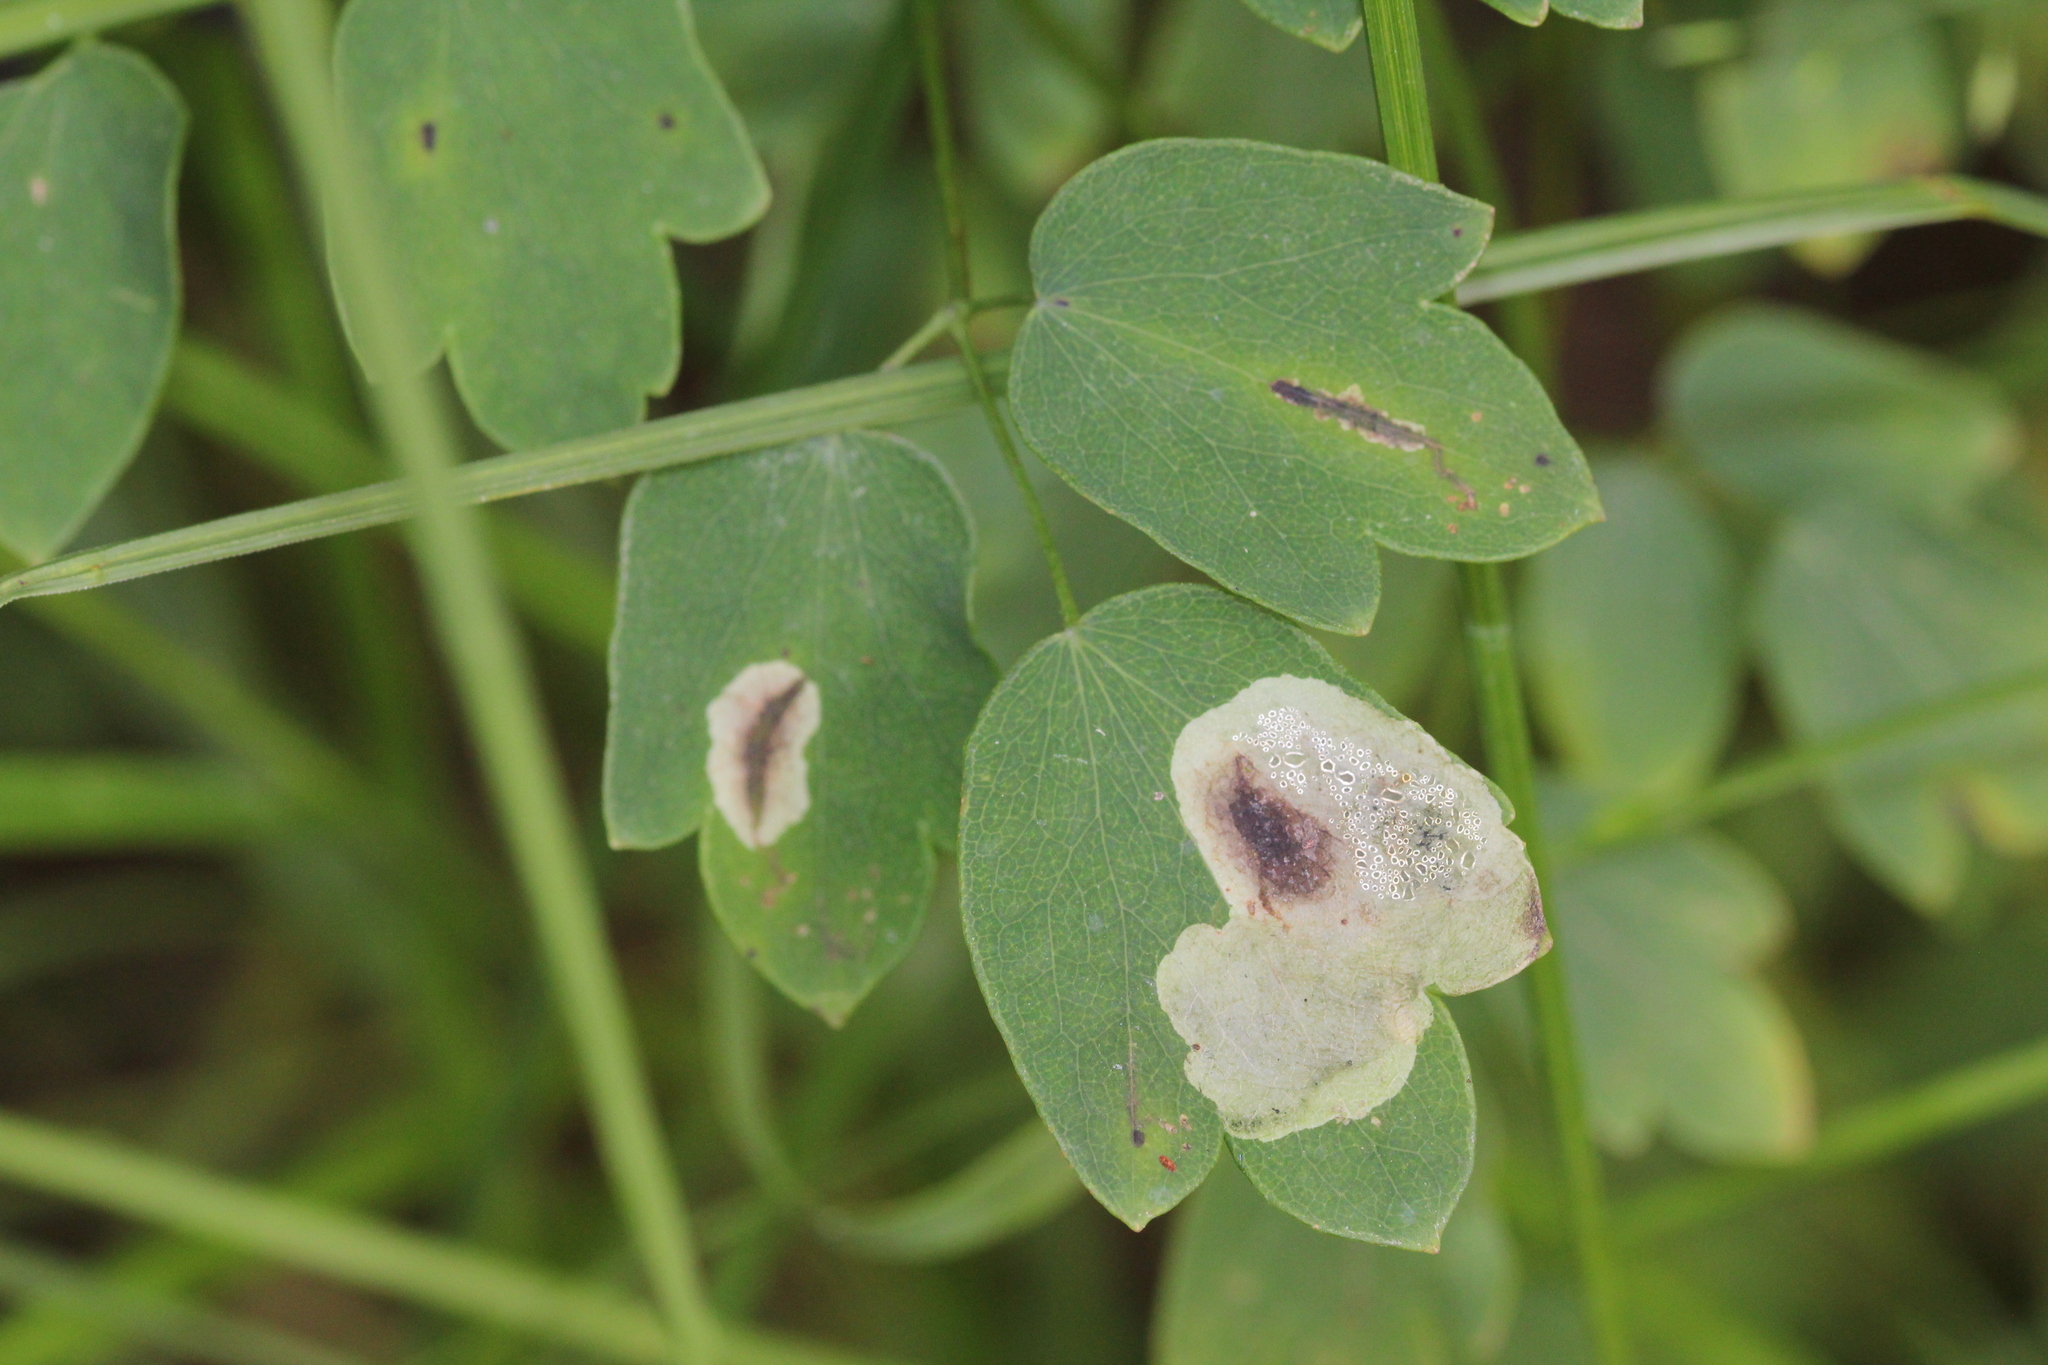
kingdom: Animalia
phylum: Arthropoda
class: Insecta
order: Diptera
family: Agromyzidae
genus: Phytomyza
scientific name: Phytomyza plumiseta
